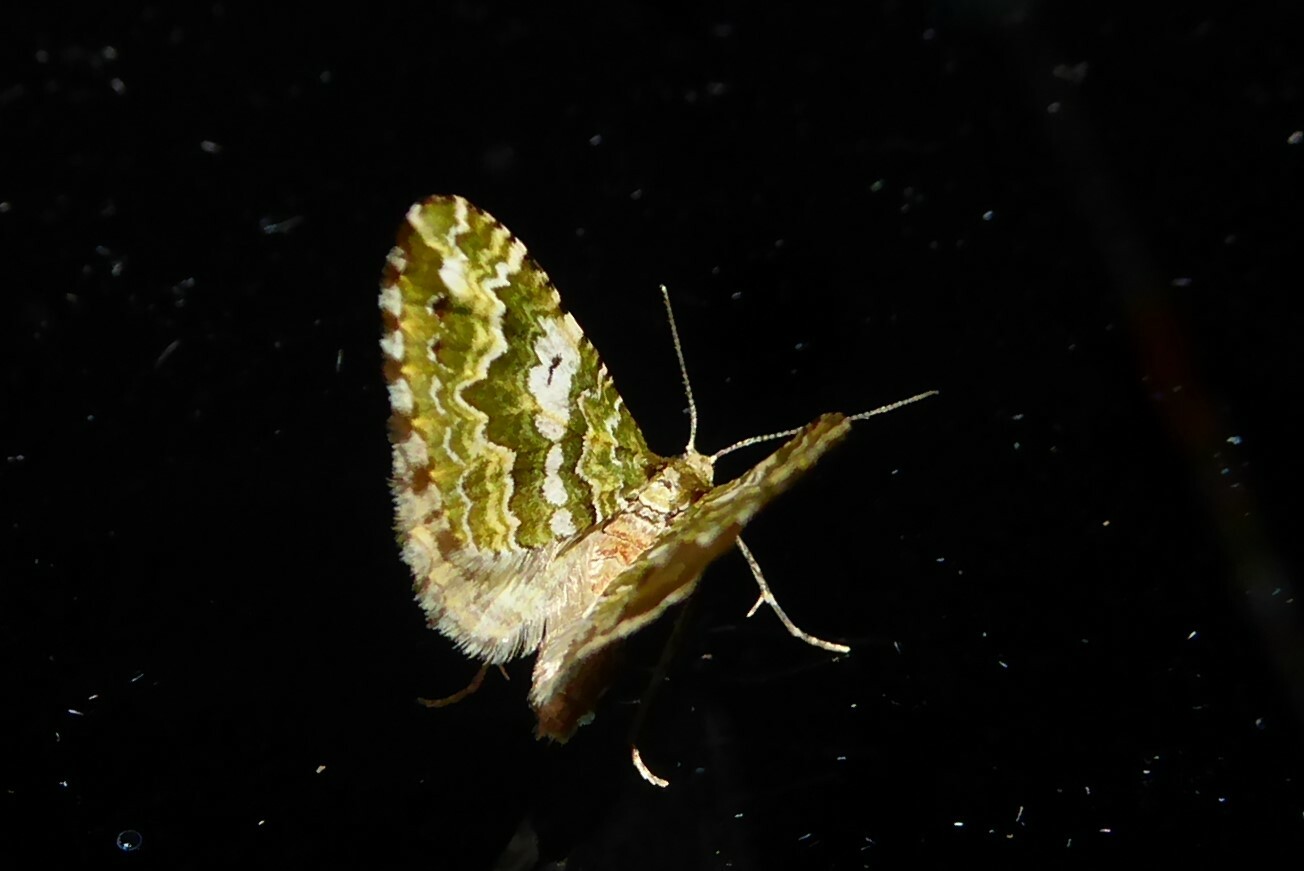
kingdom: Animalia
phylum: Arthropoda
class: Insecta
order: Lepidoptera
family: Geometridae
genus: Asaphodes
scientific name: Asaphodes beata
